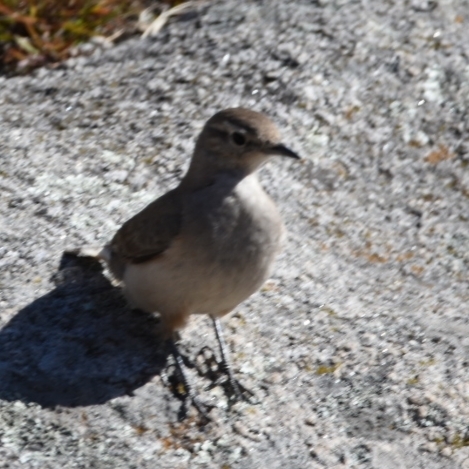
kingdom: Animalia
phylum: Chordata
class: Aves
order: Passeriformes
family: Furnariidae
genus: Geositta
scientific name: Geositta rufipennis
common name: Rufous-banded miner
